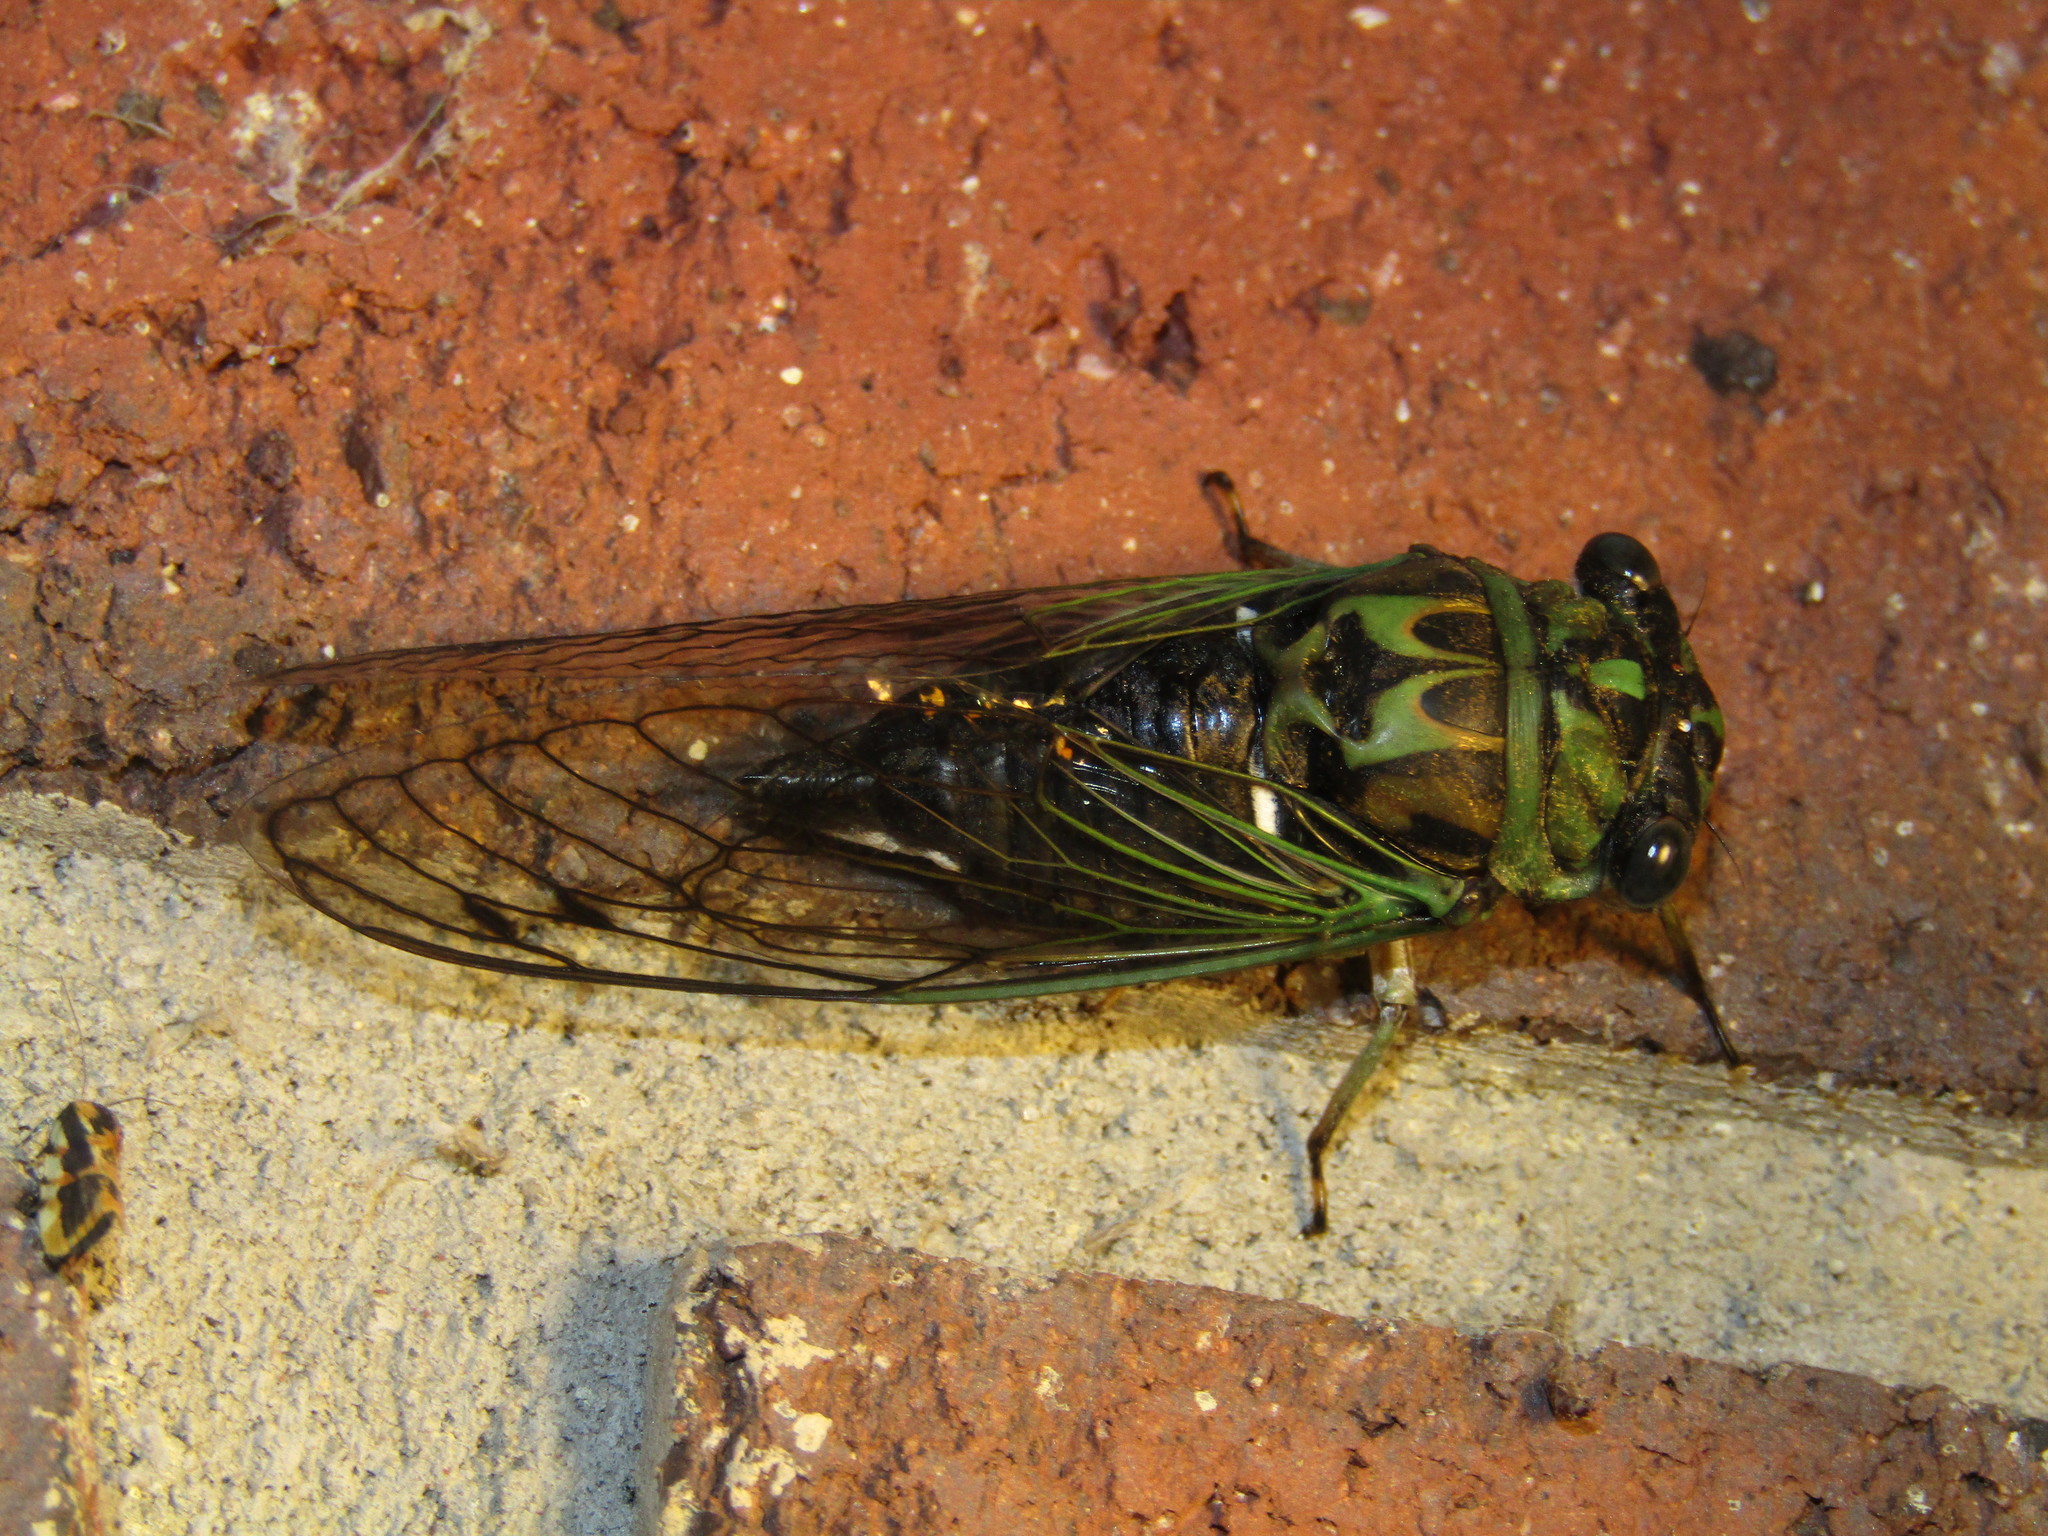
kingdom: Animalia
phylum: Arthropoda
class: Insecta
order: Hemiptera
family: Cicadidae
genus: Neotibicen
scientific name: Neotibicen robinsonianus
